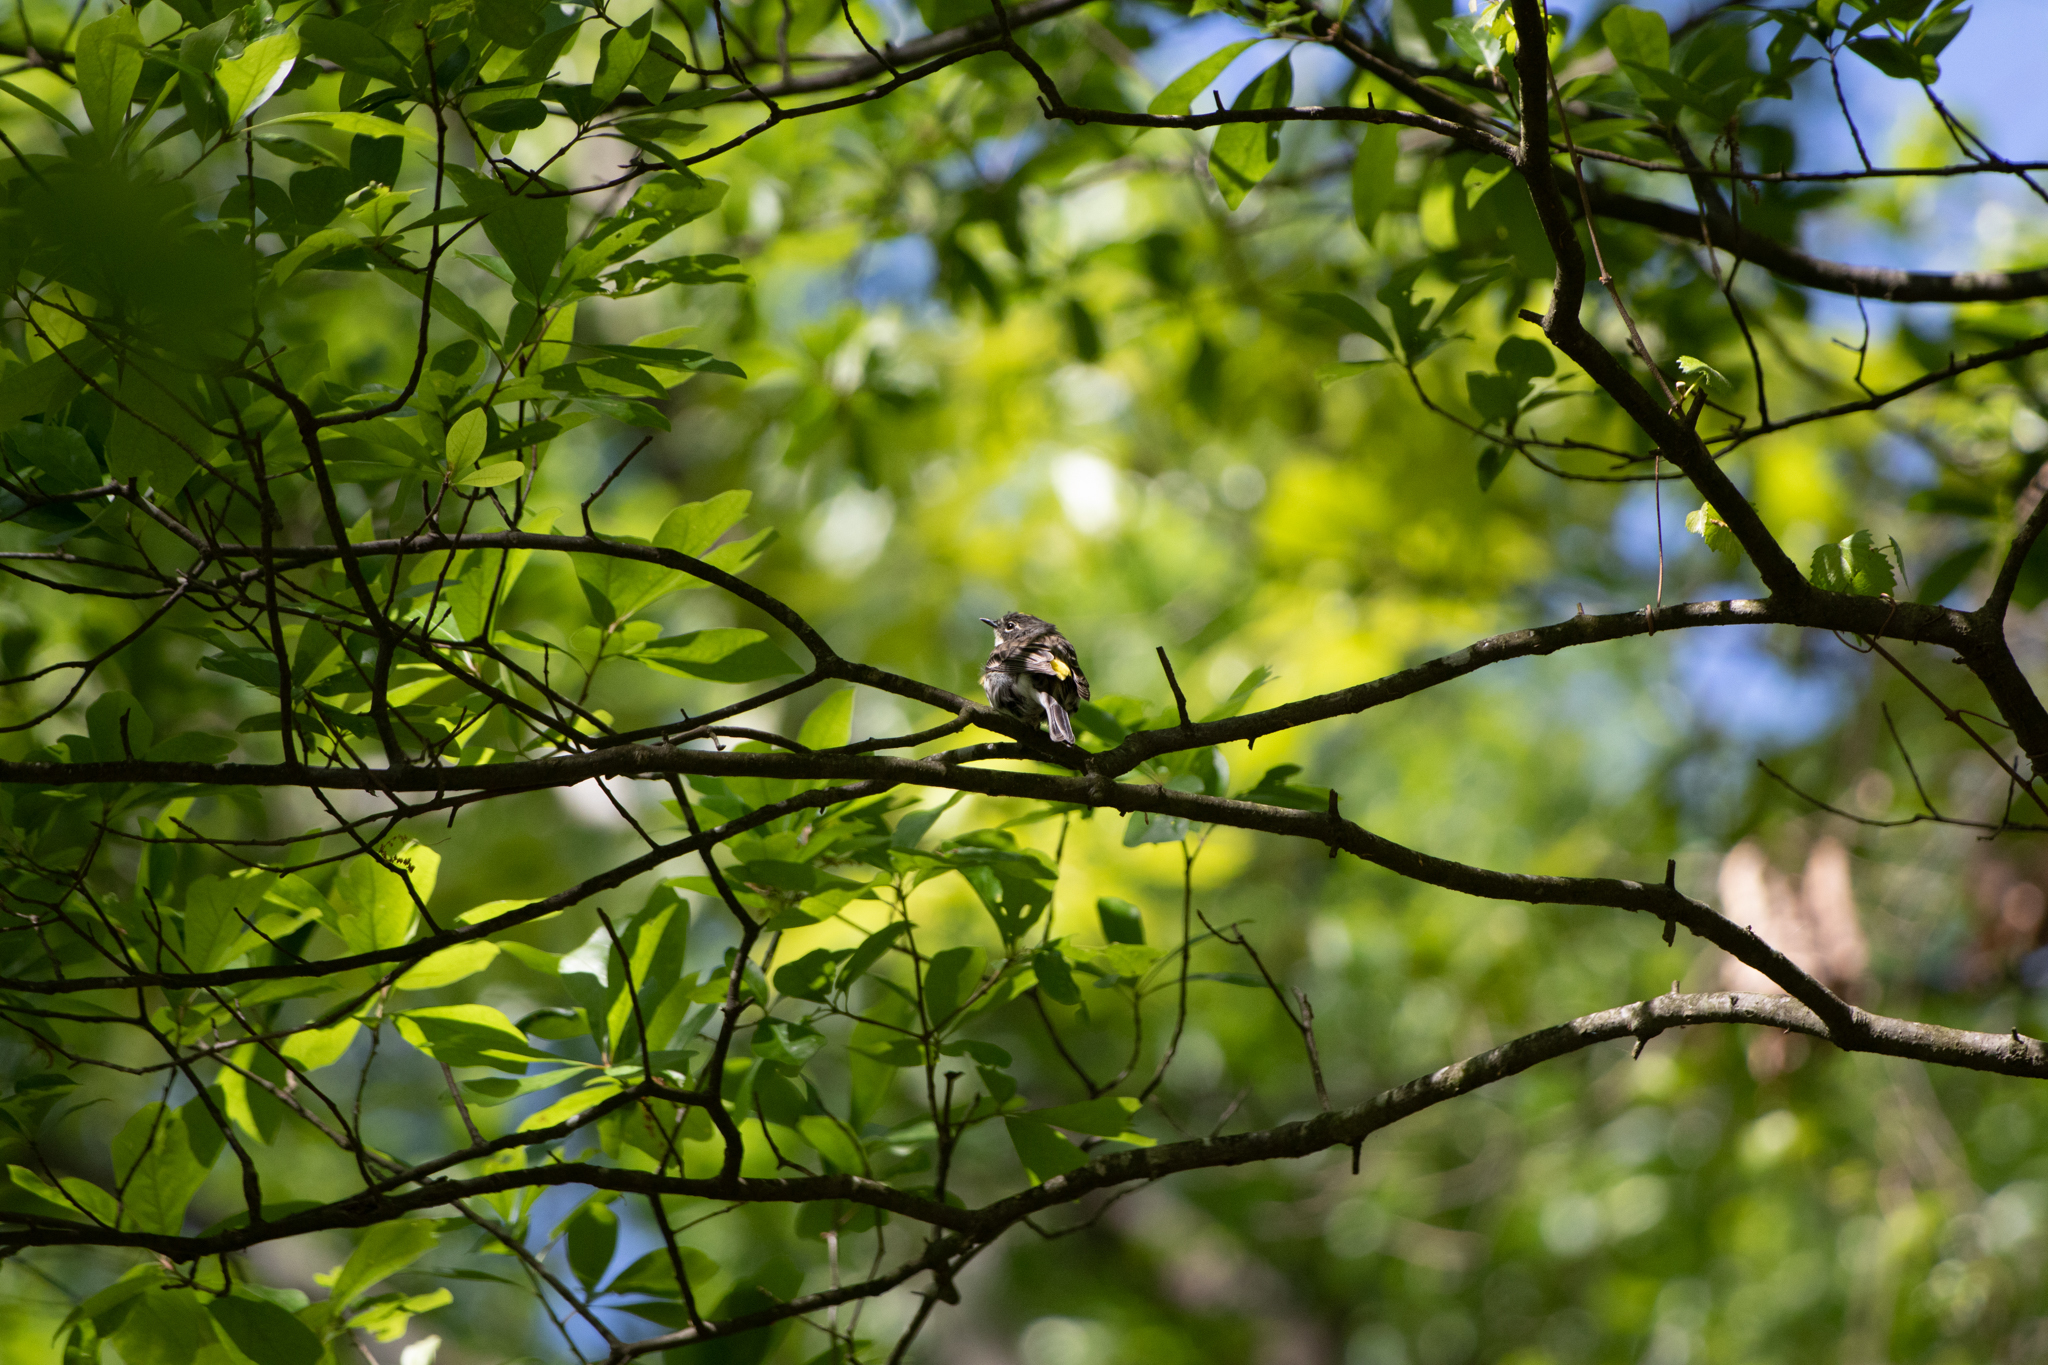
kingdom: Animalia
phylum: Chordata
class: Aves
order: Passeriformes
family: Parulidae
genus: Setophaga
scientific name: Setophaga coronata
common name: Myrtle warbler
